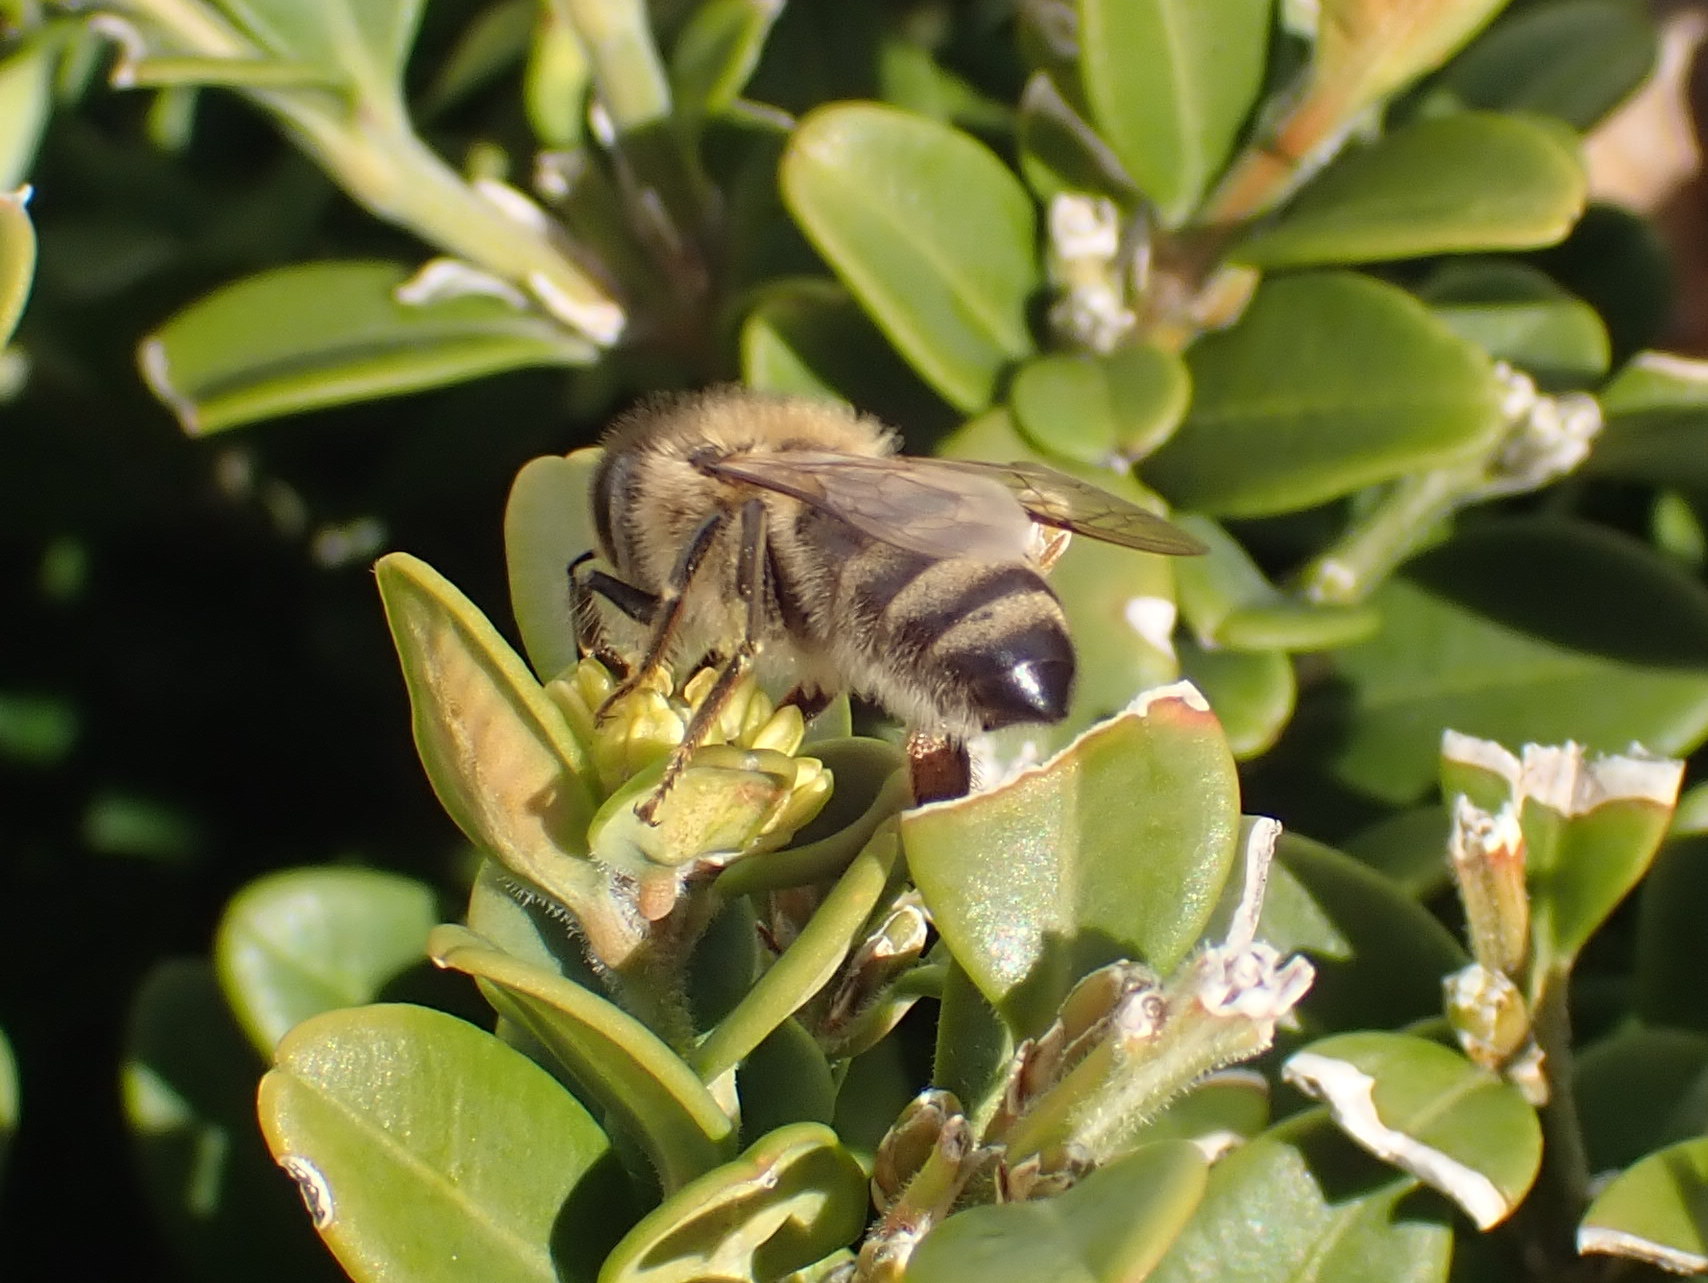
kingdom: Animalia
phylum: Arthropoda
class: Insecta
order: Hymenoptera
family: Apidae
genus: Apis
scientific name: Apis mellifera
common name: Honey bee
